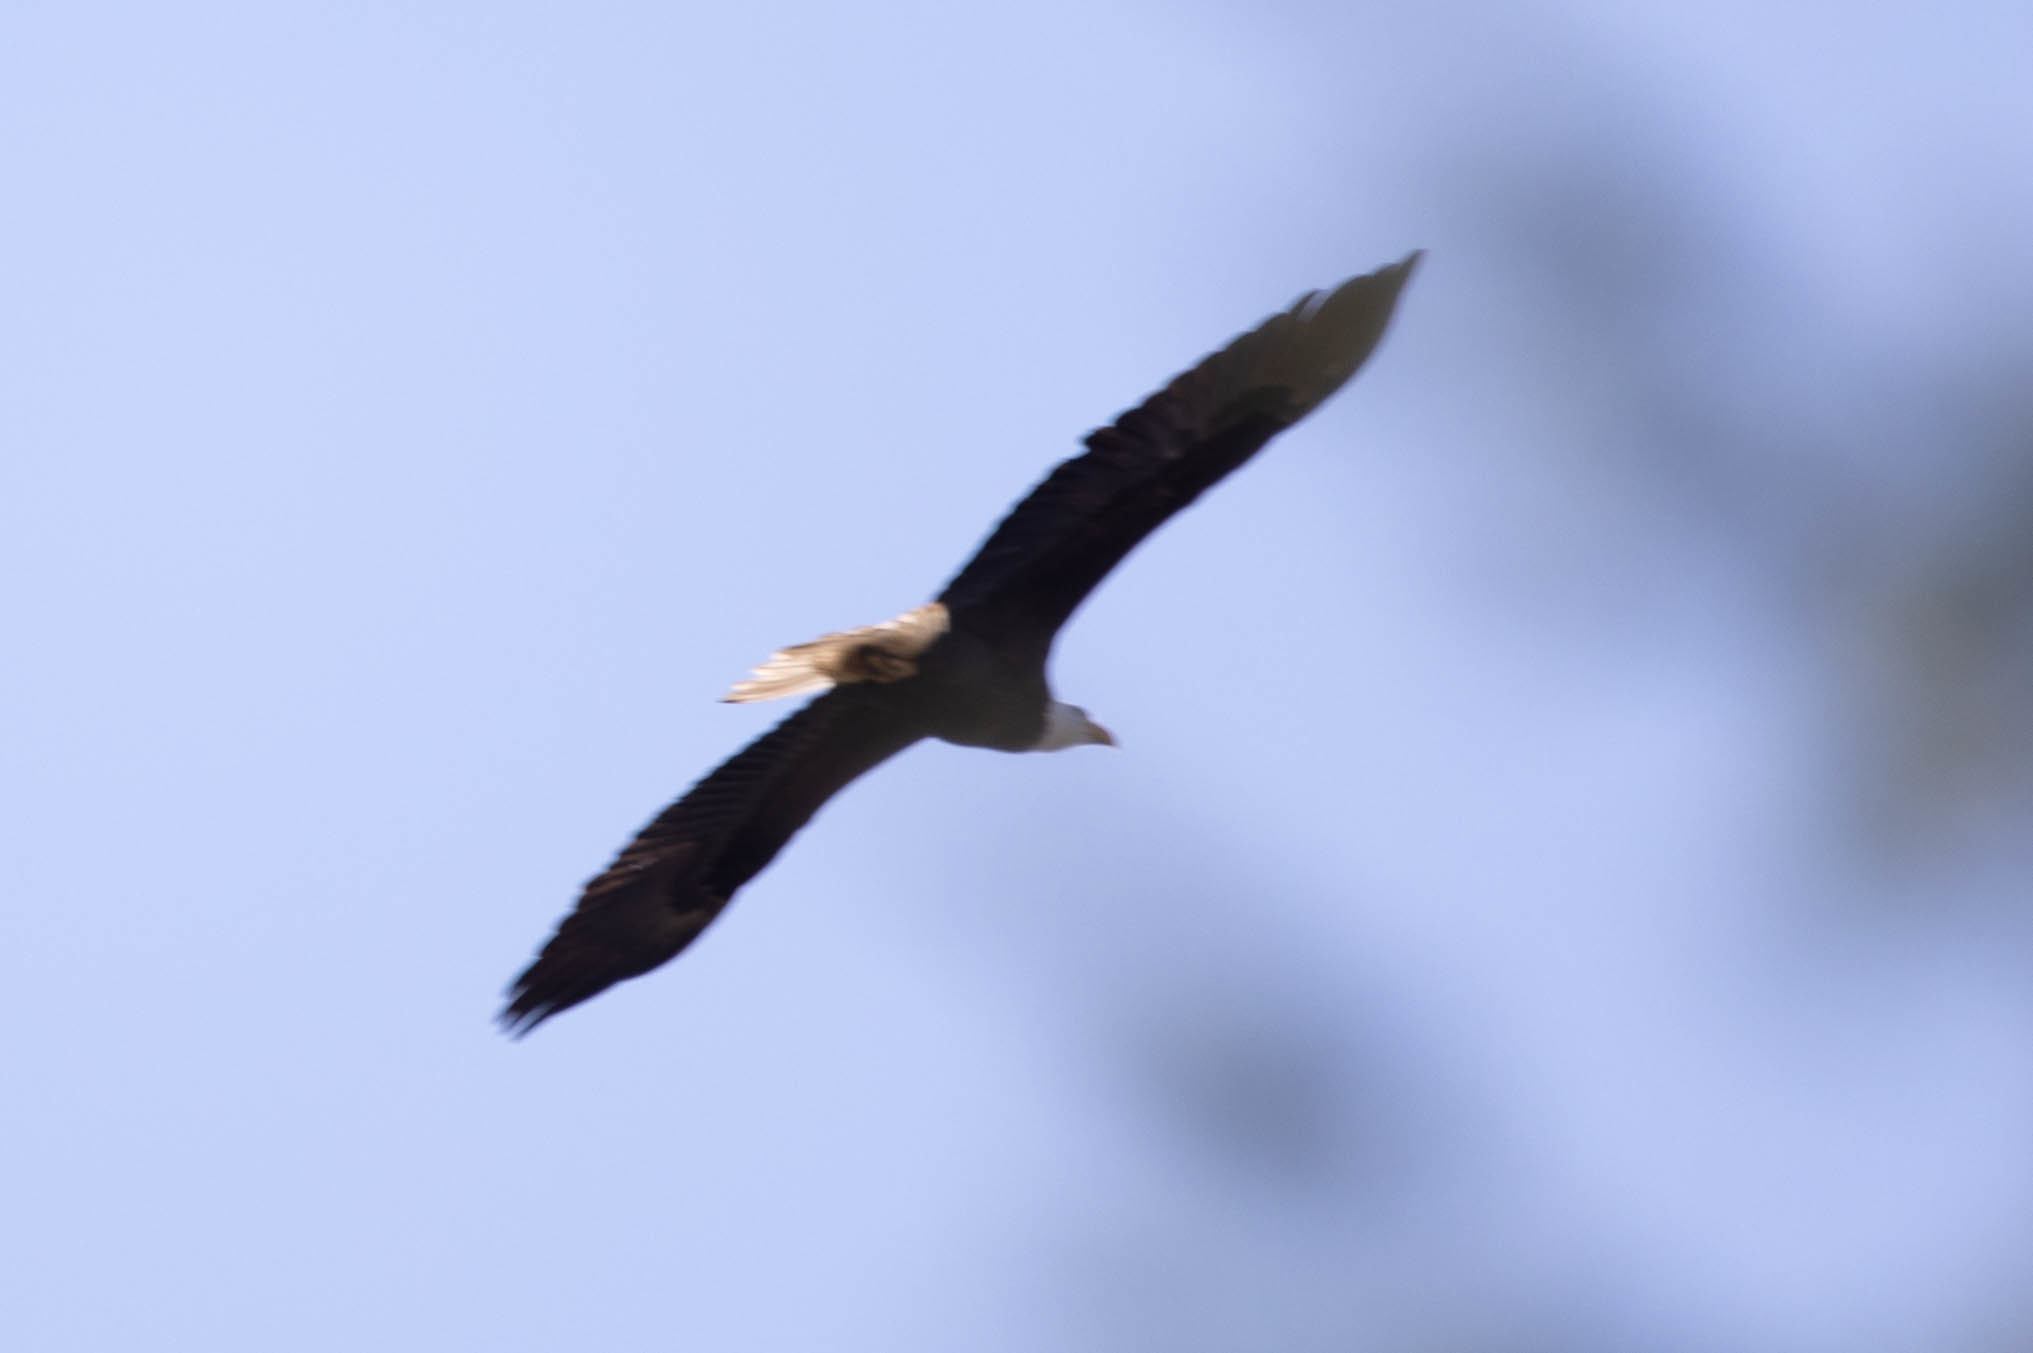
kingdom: Animalia
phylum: Chordata
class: Aves
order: Accipitriformes
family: Accipitridae
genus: Haliaeetus
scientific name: Haliaeetus leucocephalus
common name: Bald eagle
